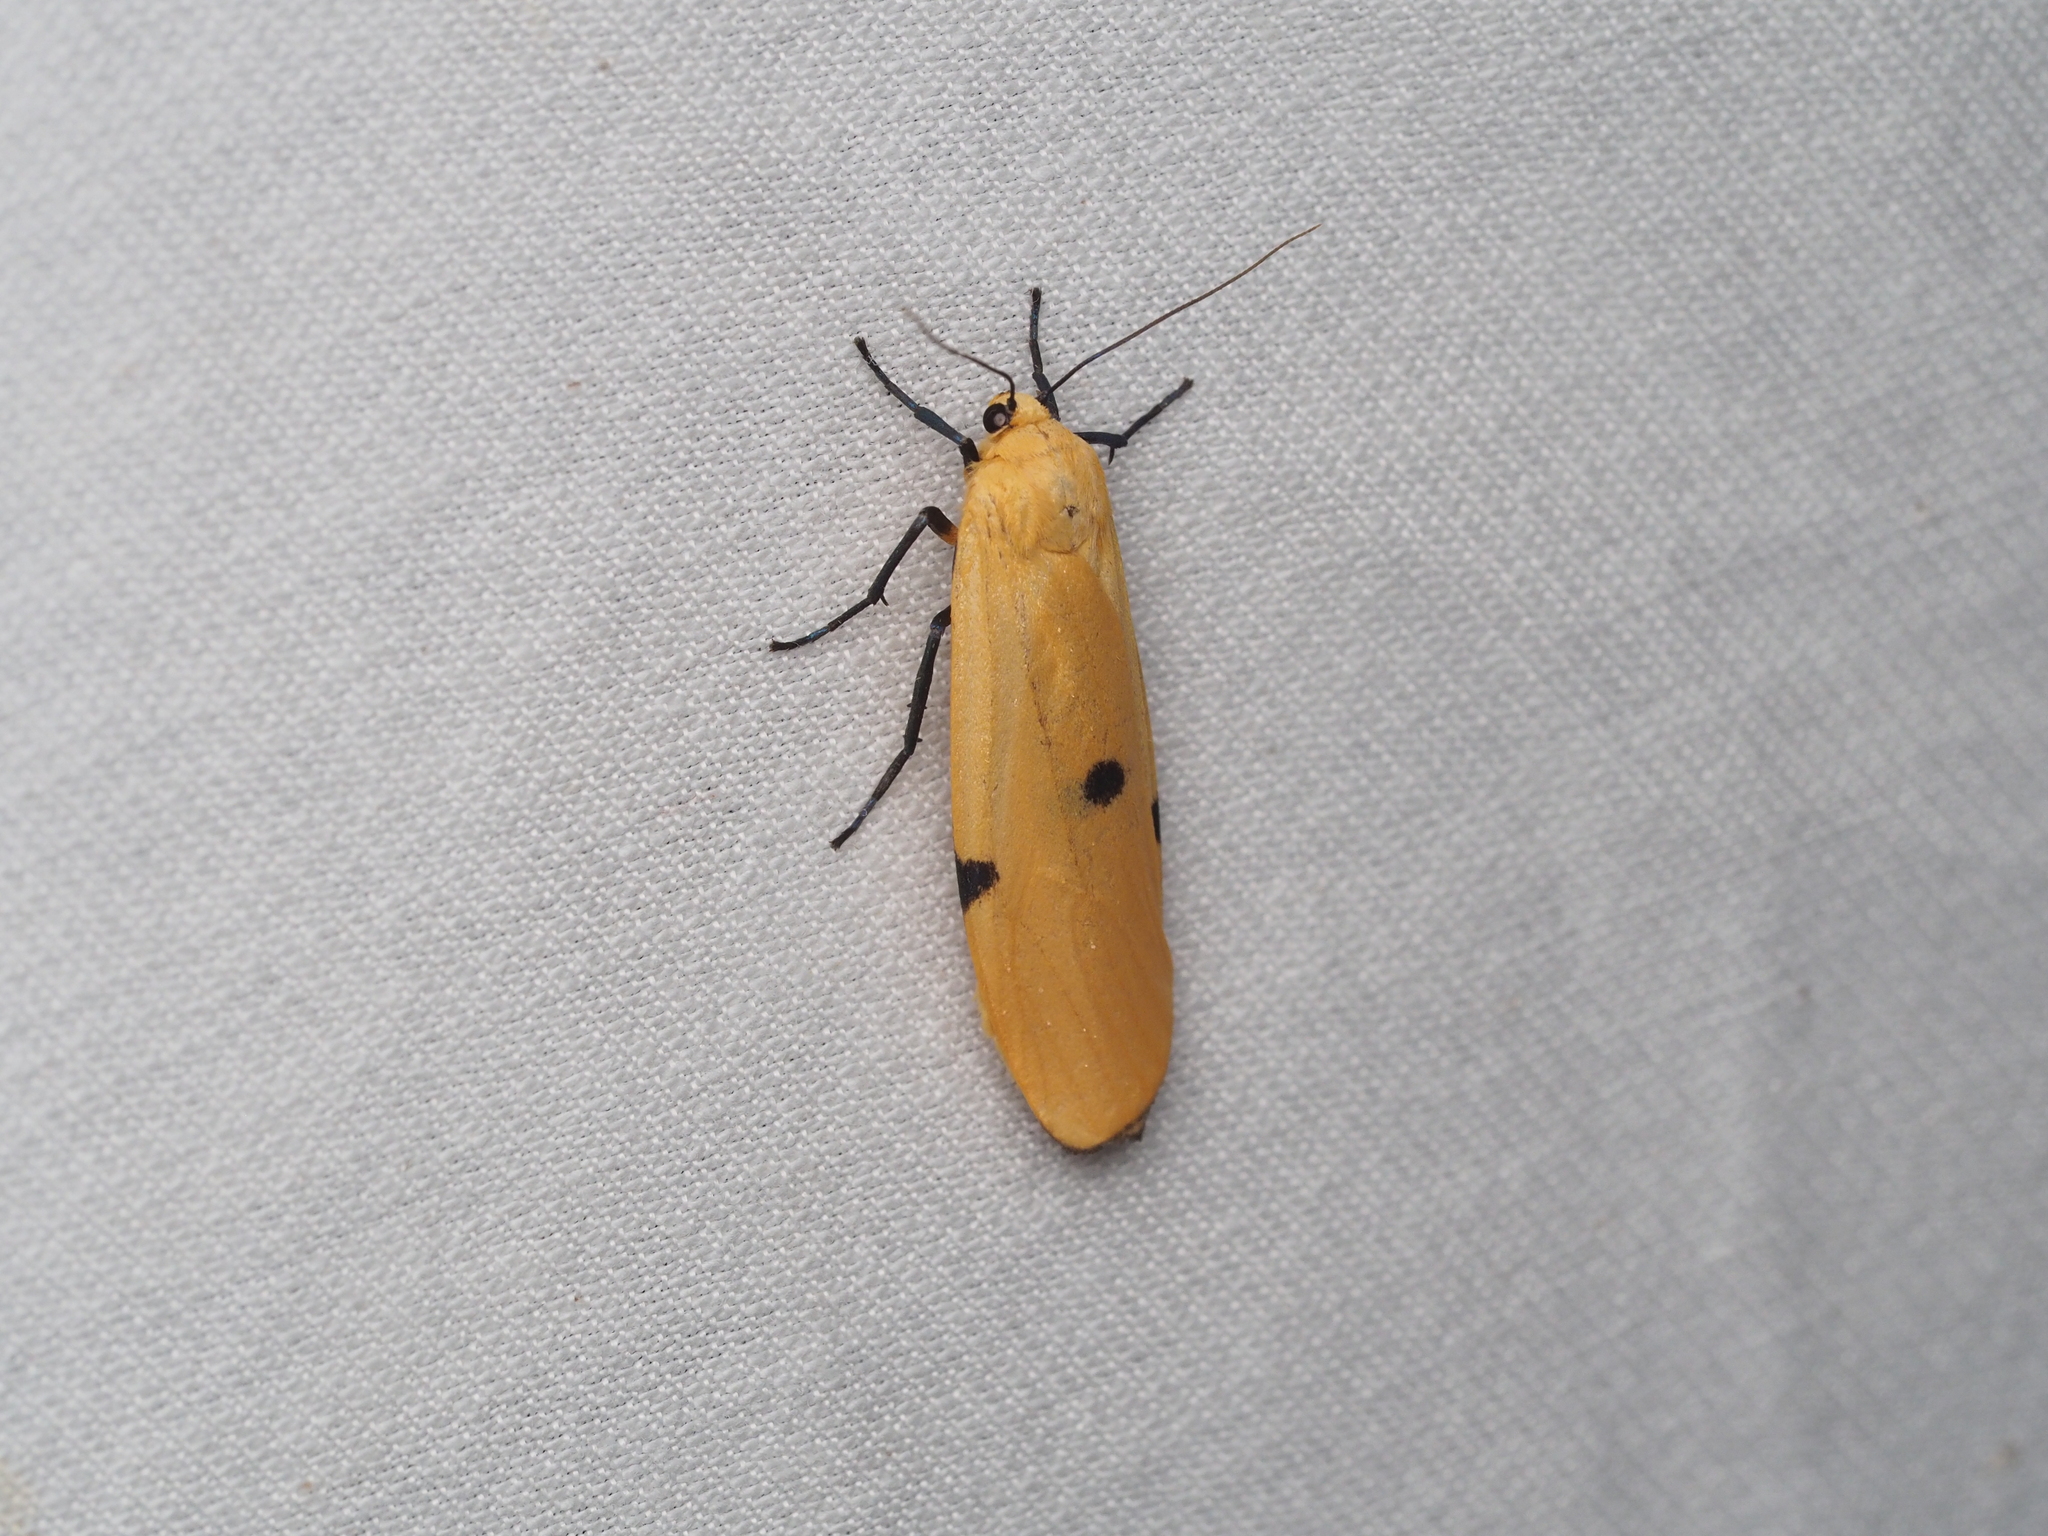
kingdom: Animalia
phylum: Arthropoda
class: Insecta
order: Lepidoptera
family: Erebidae
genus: Lithosia
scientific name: Lithosia quadra
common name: Four-spotted footman
